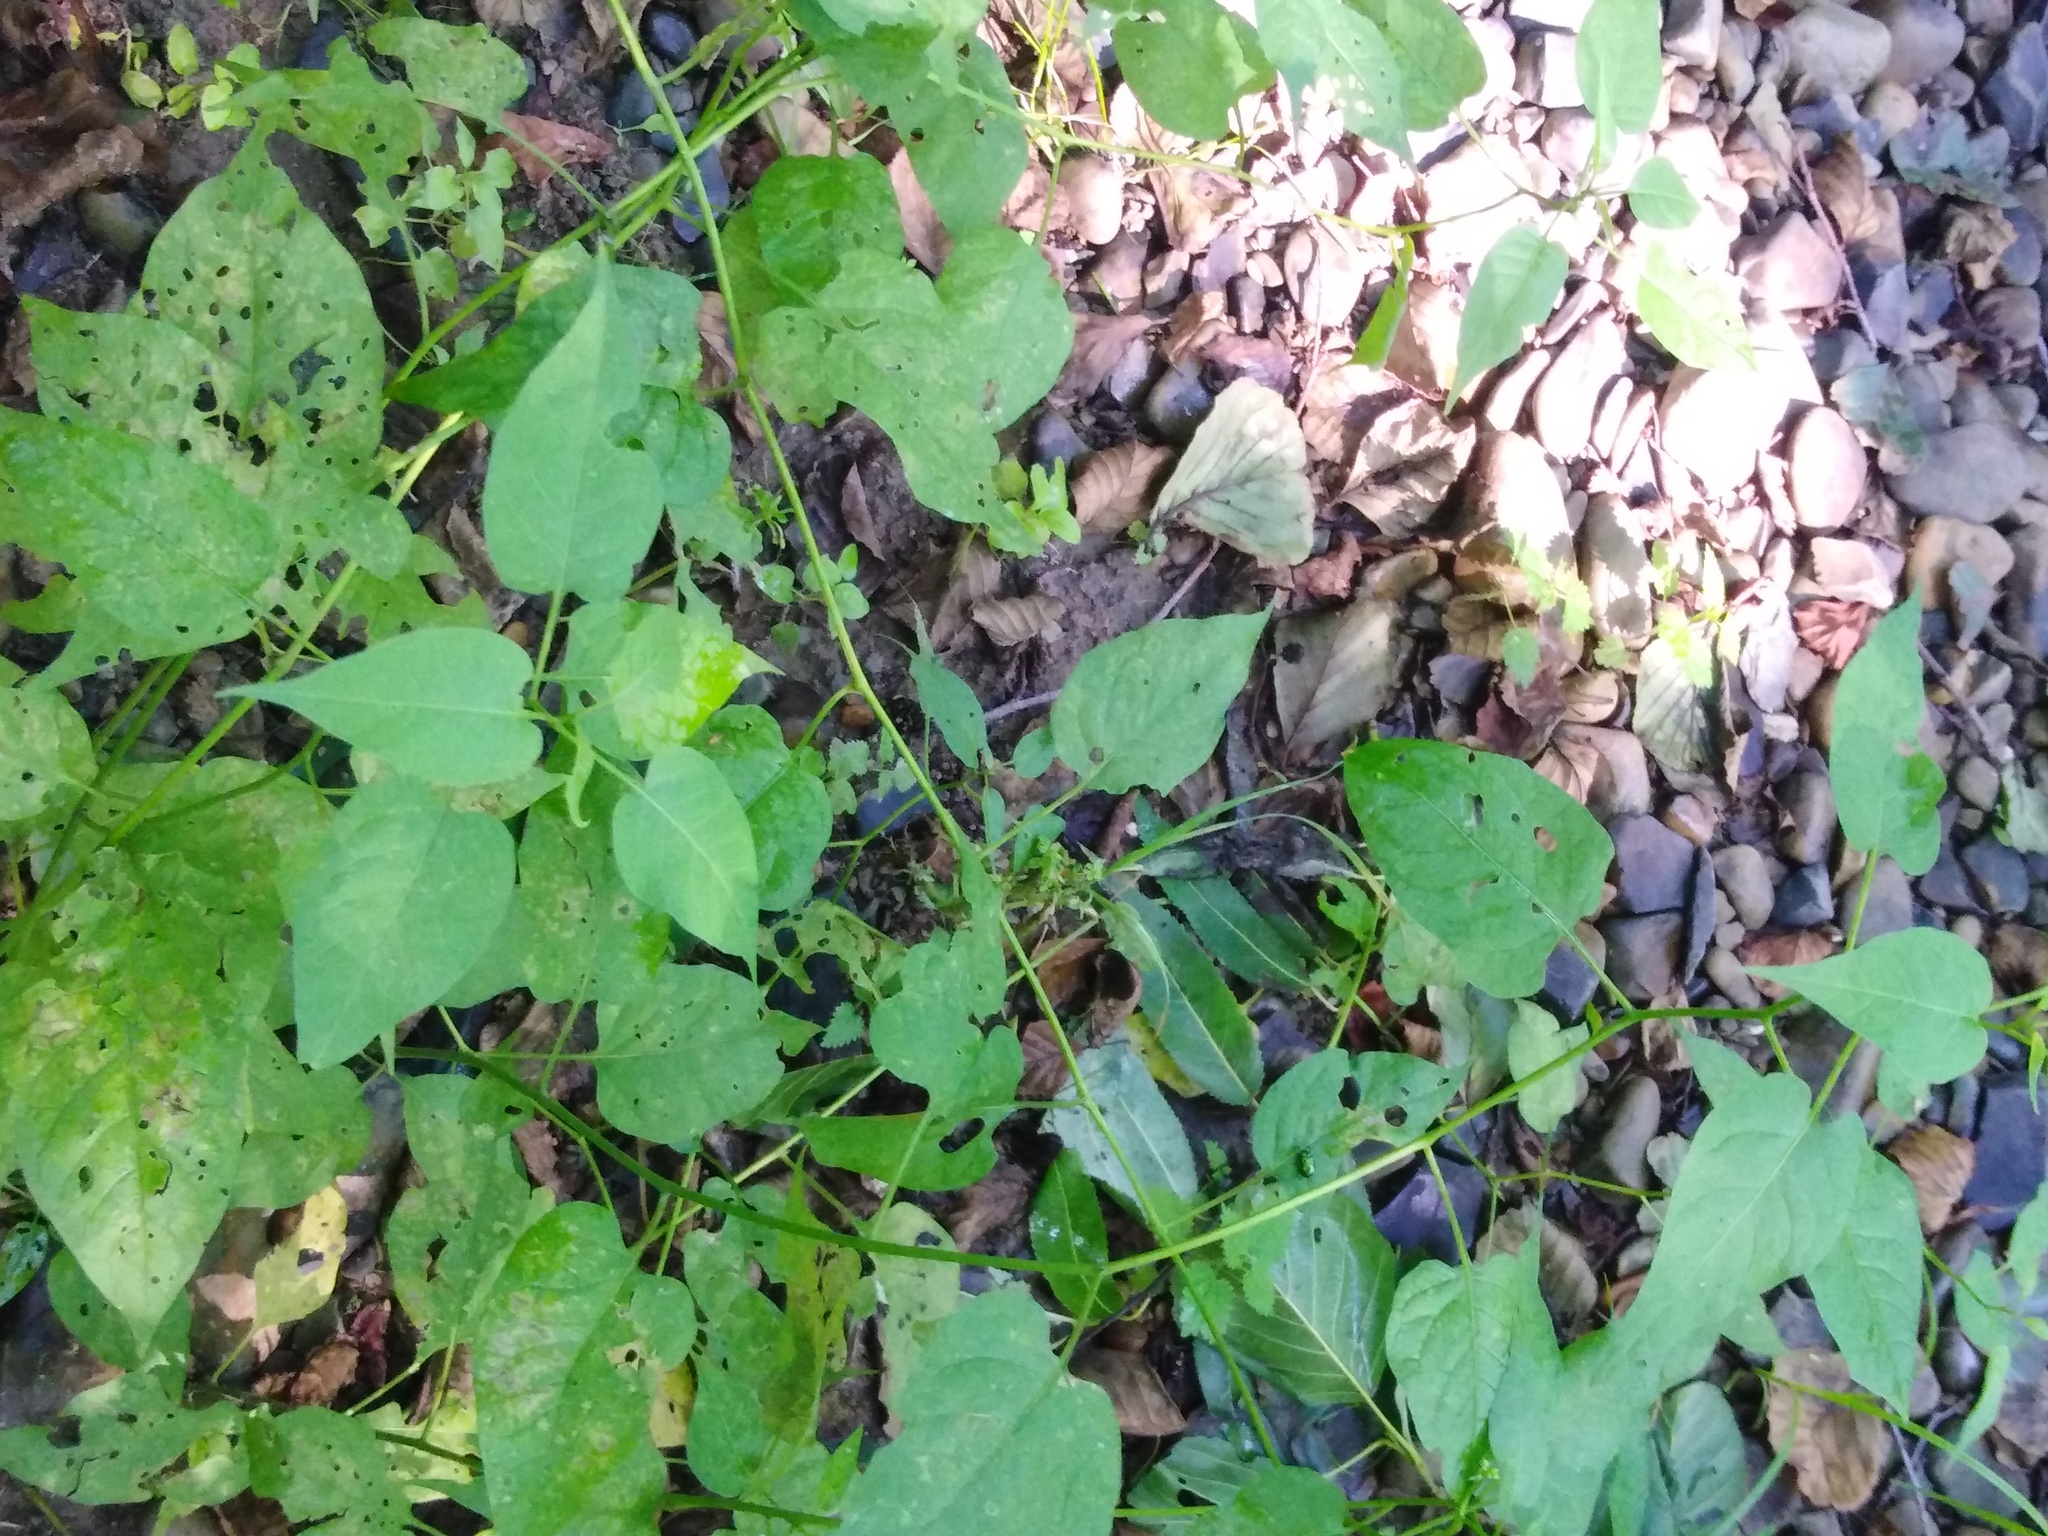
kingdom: Plantae
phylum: Tracheophyta
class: Magnoliopsida
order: Solanales
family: Solanaceae
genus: Solanum
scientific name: Solanum dulcamara
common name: Climbing nightshade
